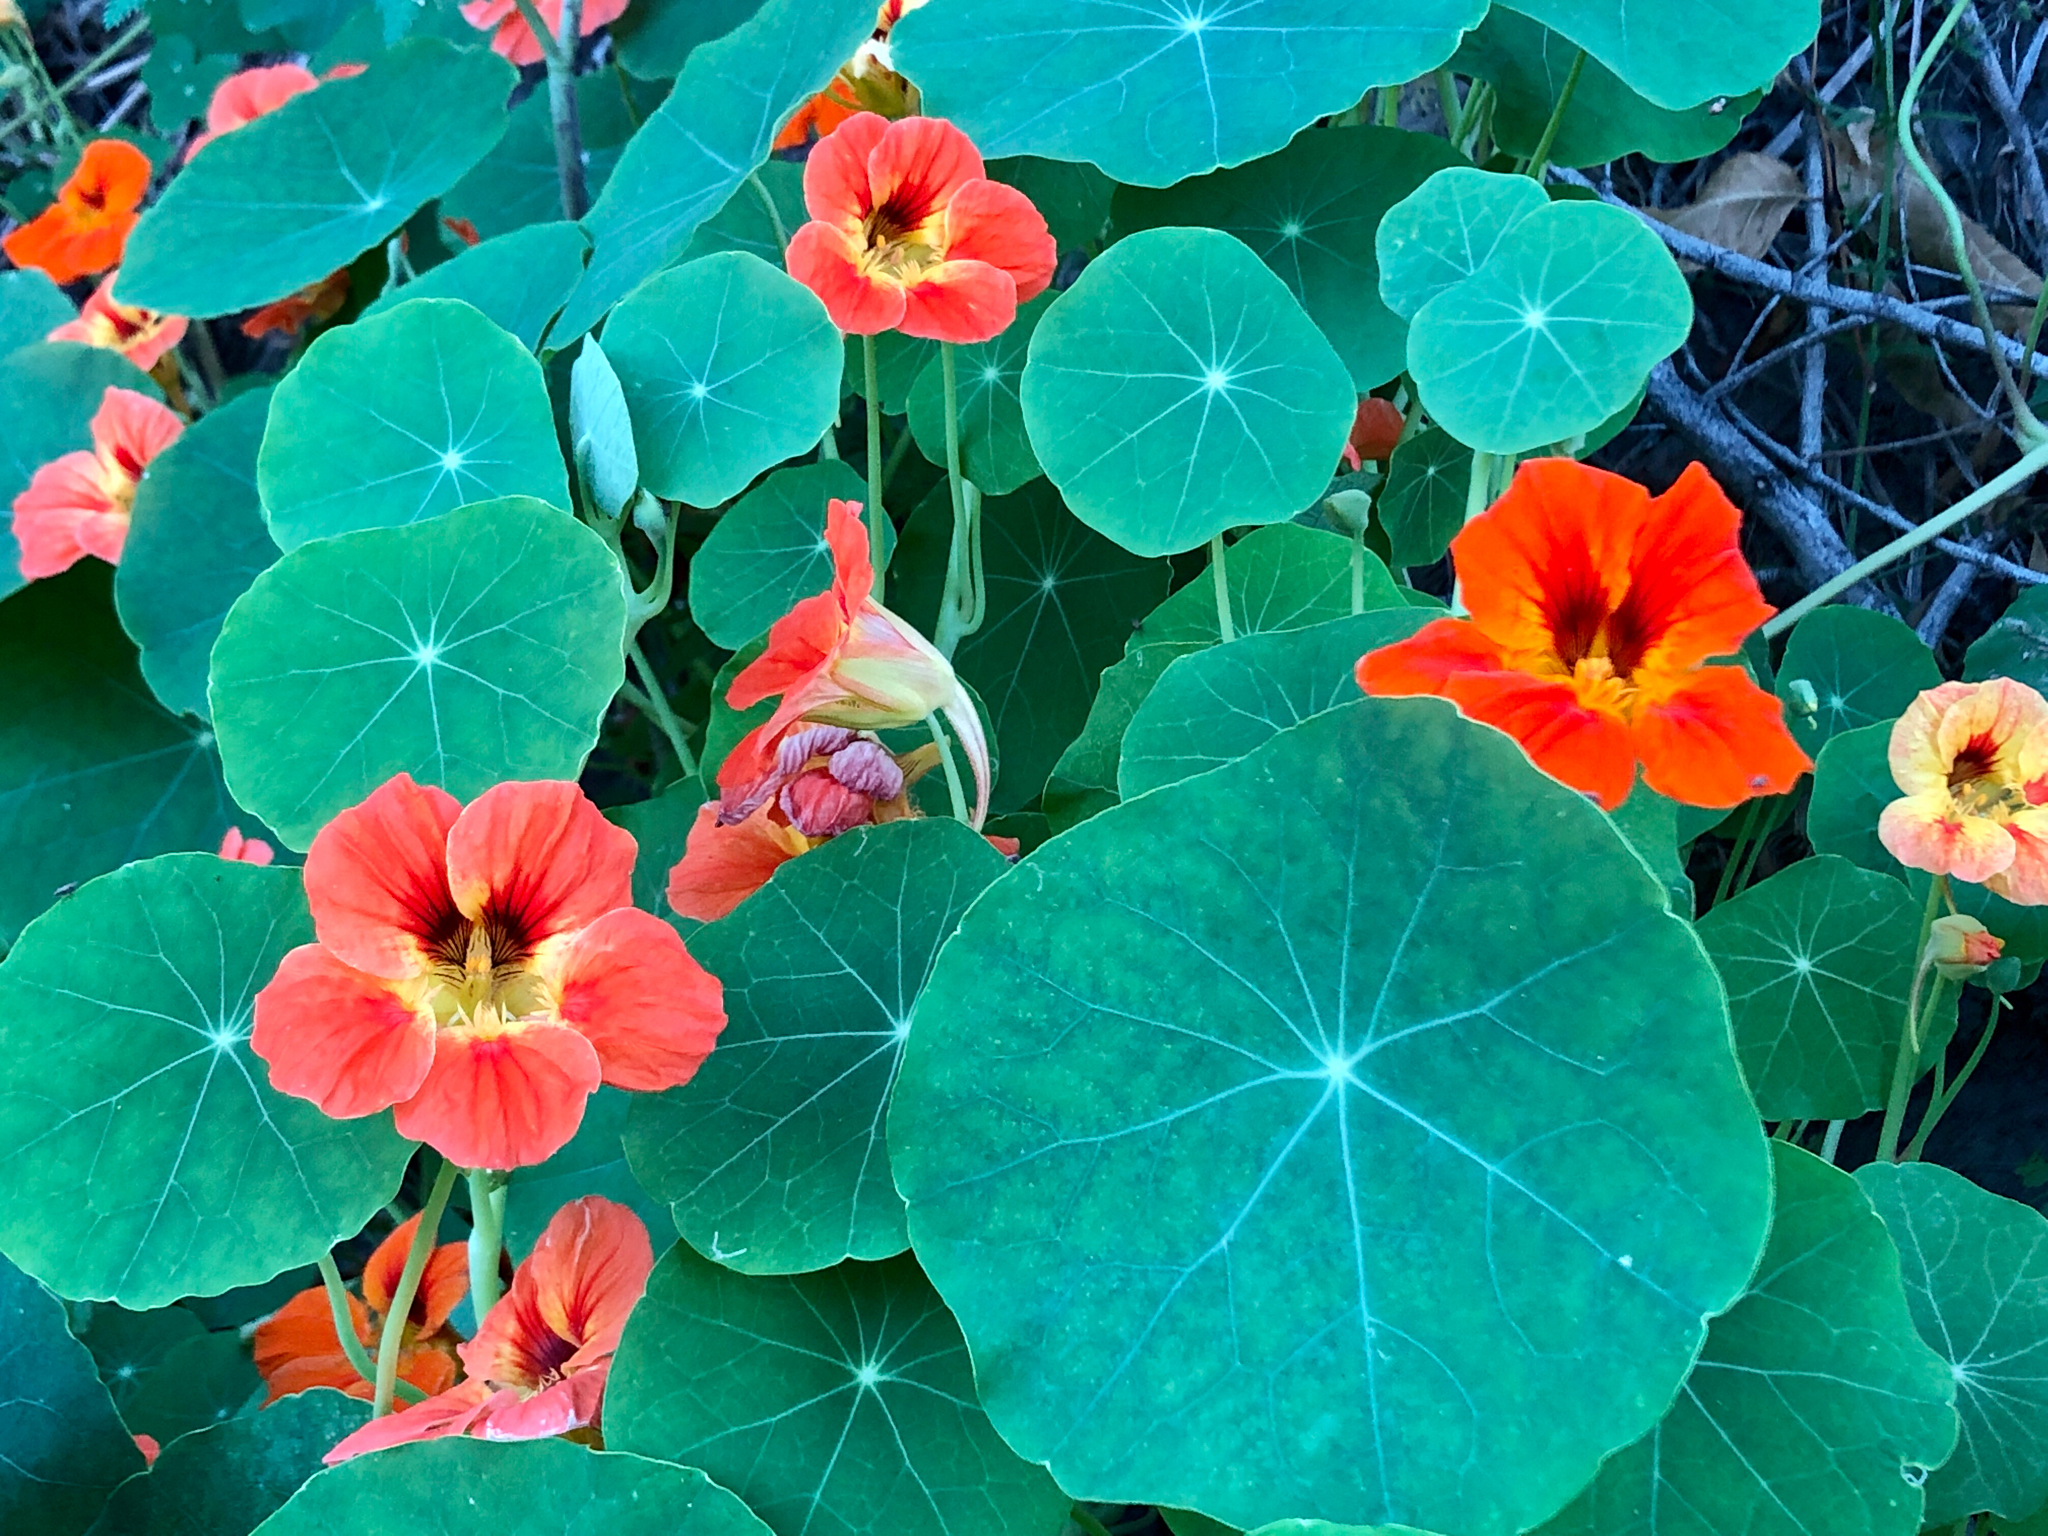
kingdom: Plantae
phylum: Tracheophyta
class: Magnoliopsida
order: Brassicales
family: Tropaeolaceae
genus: Tropaeolum
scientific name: Tropaeolum majus
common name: Nasturtium
